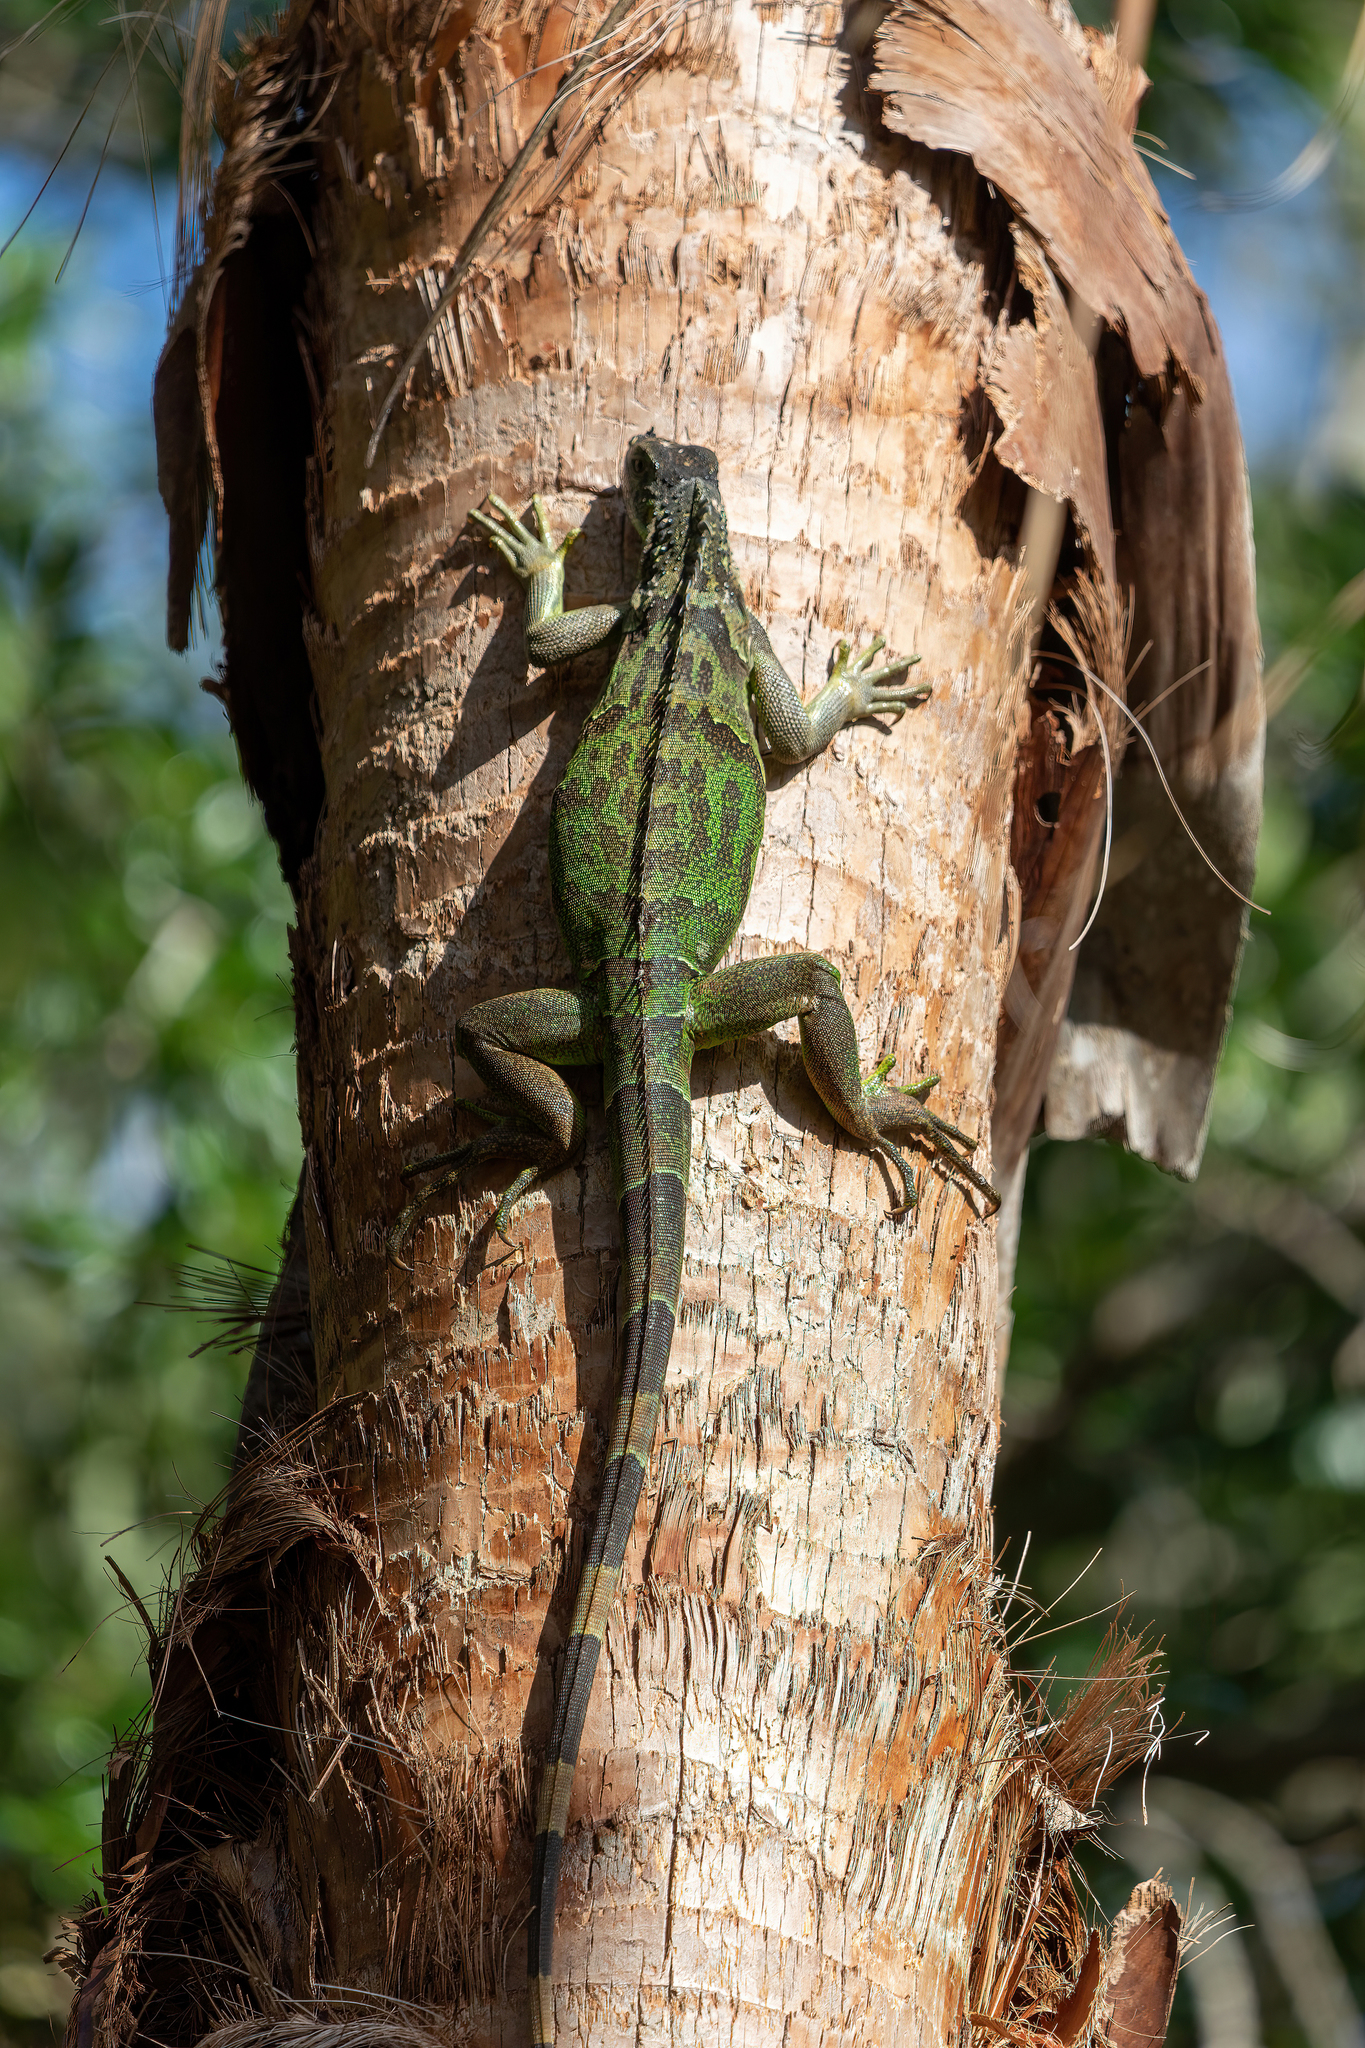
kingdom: Animalia
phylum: Chordata
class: Squamata
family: Iguanidae
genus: Iguana
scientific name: Iguana iguana
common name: Green iguana
